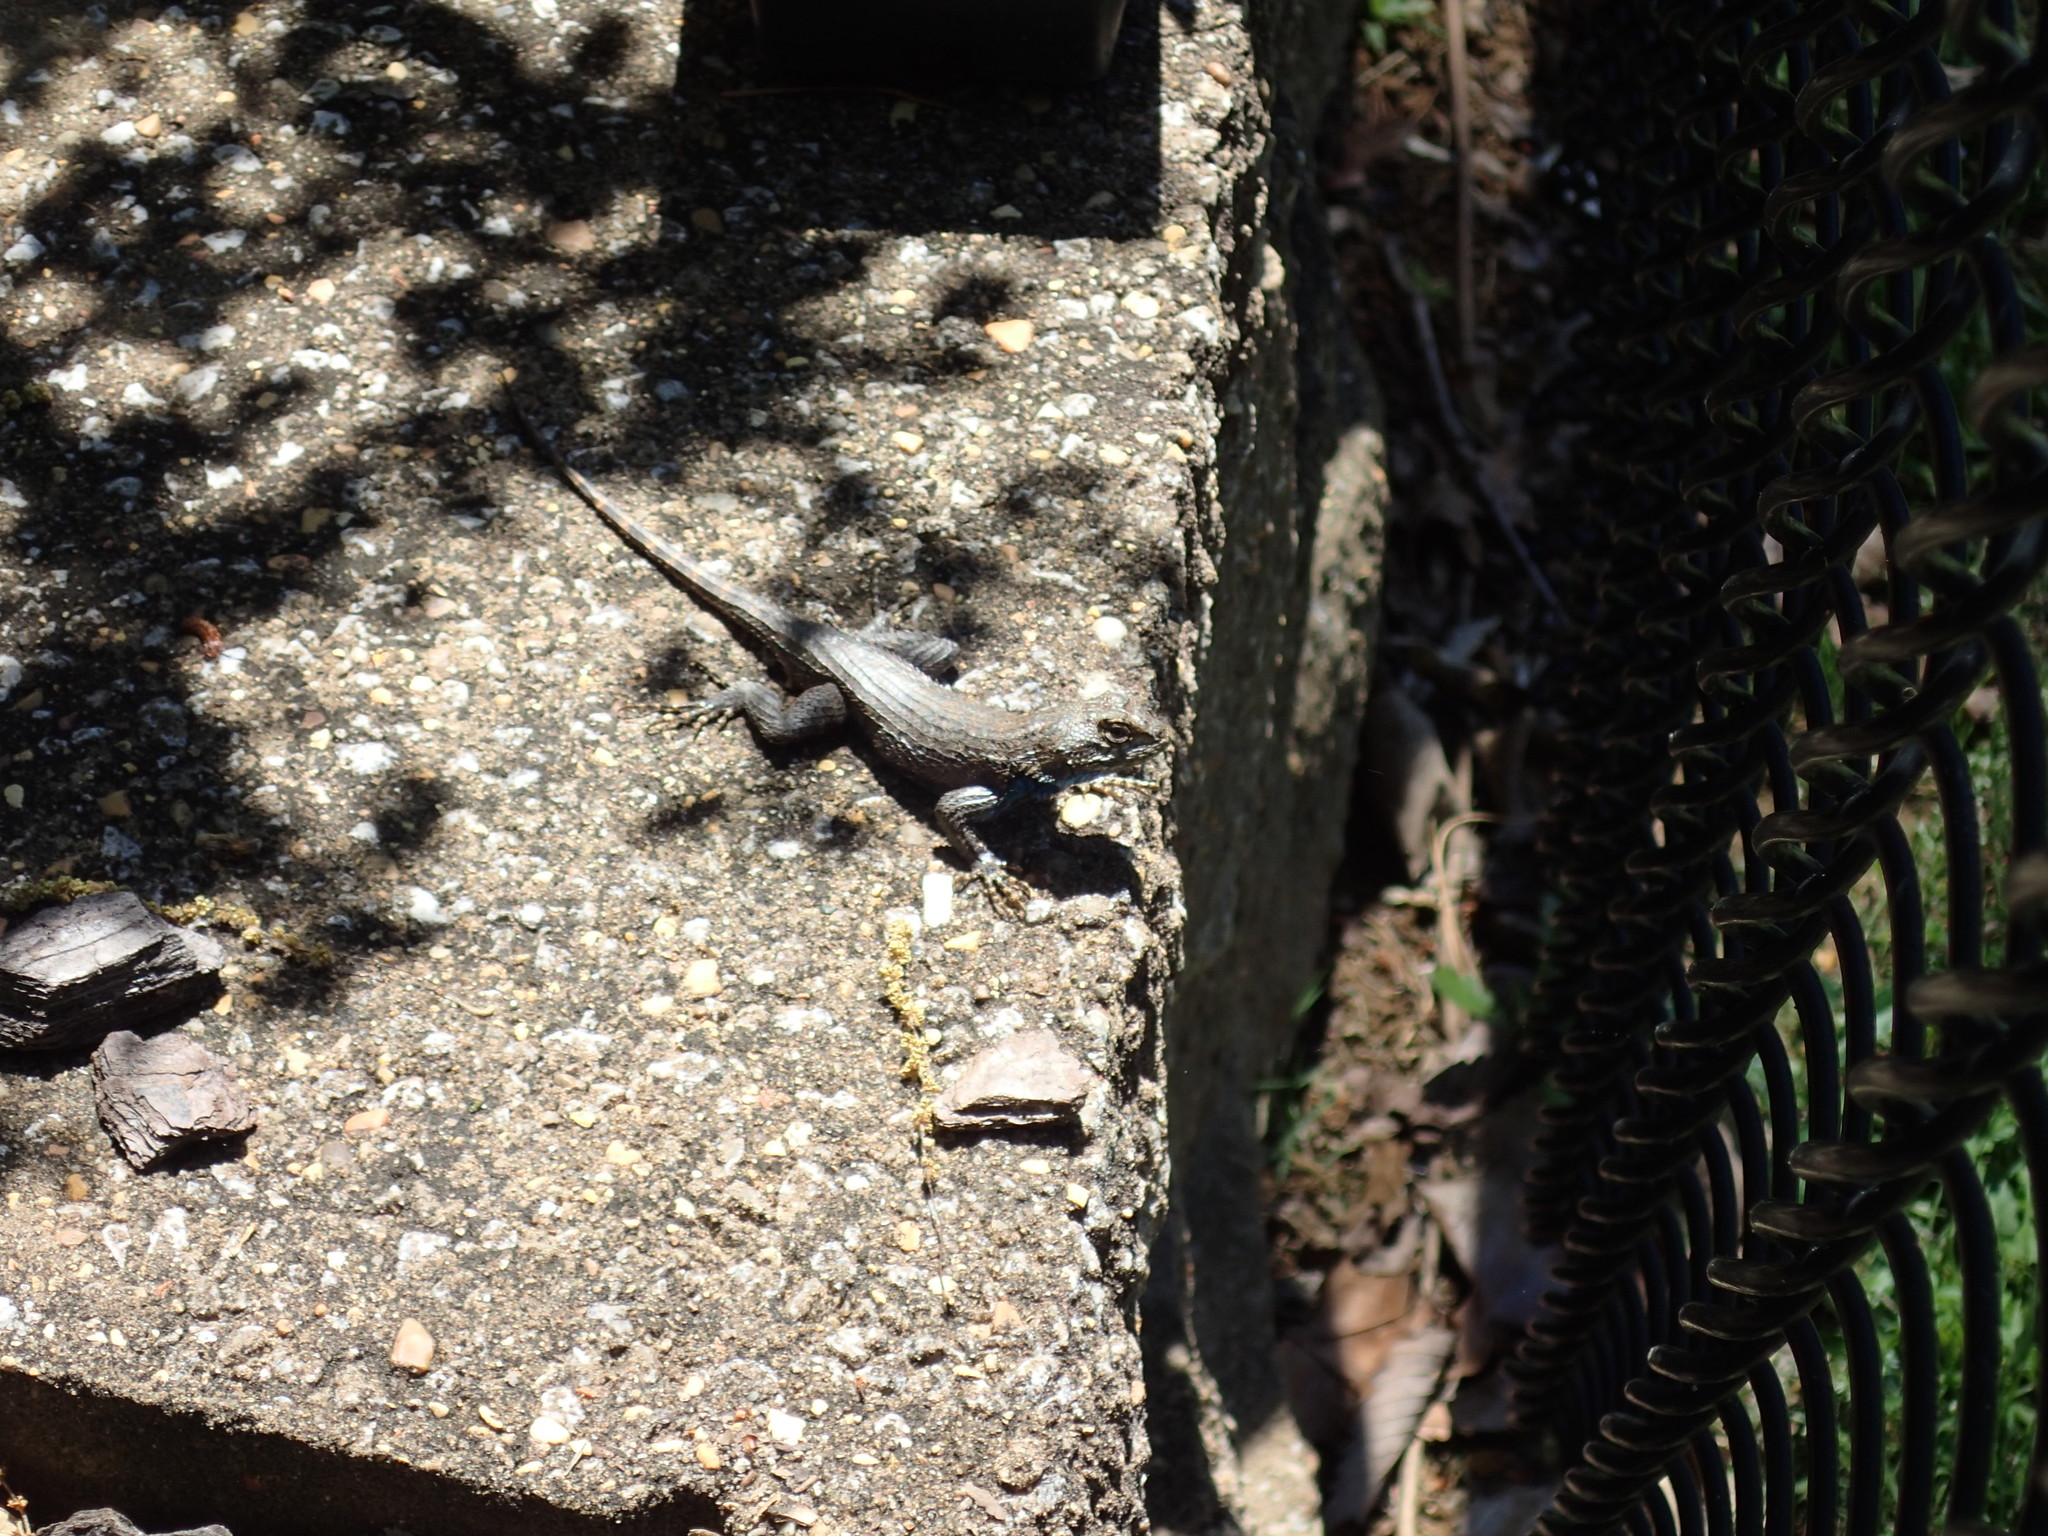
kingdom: Animalia
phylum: Chordata
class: Squamata
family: Phrynosomatidae
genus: Sceloporus
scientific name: Sceloporus undulatus
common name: Eastern fence lizard
